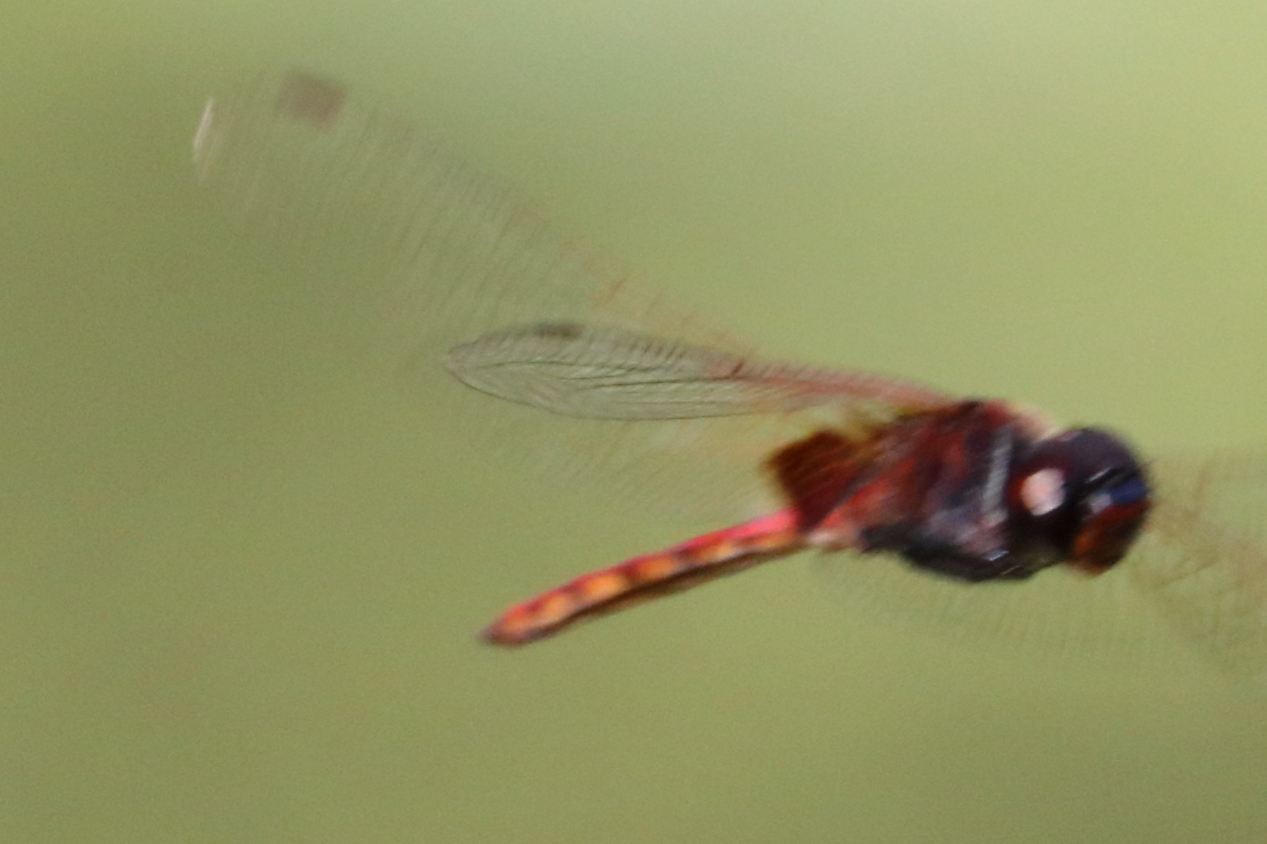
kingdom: Animalia
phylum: Arthropoda
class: Insecta
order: Odonata
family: Libellulidae
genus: Tauriphila
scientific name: Tauriphila australis
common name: Garnet glider
